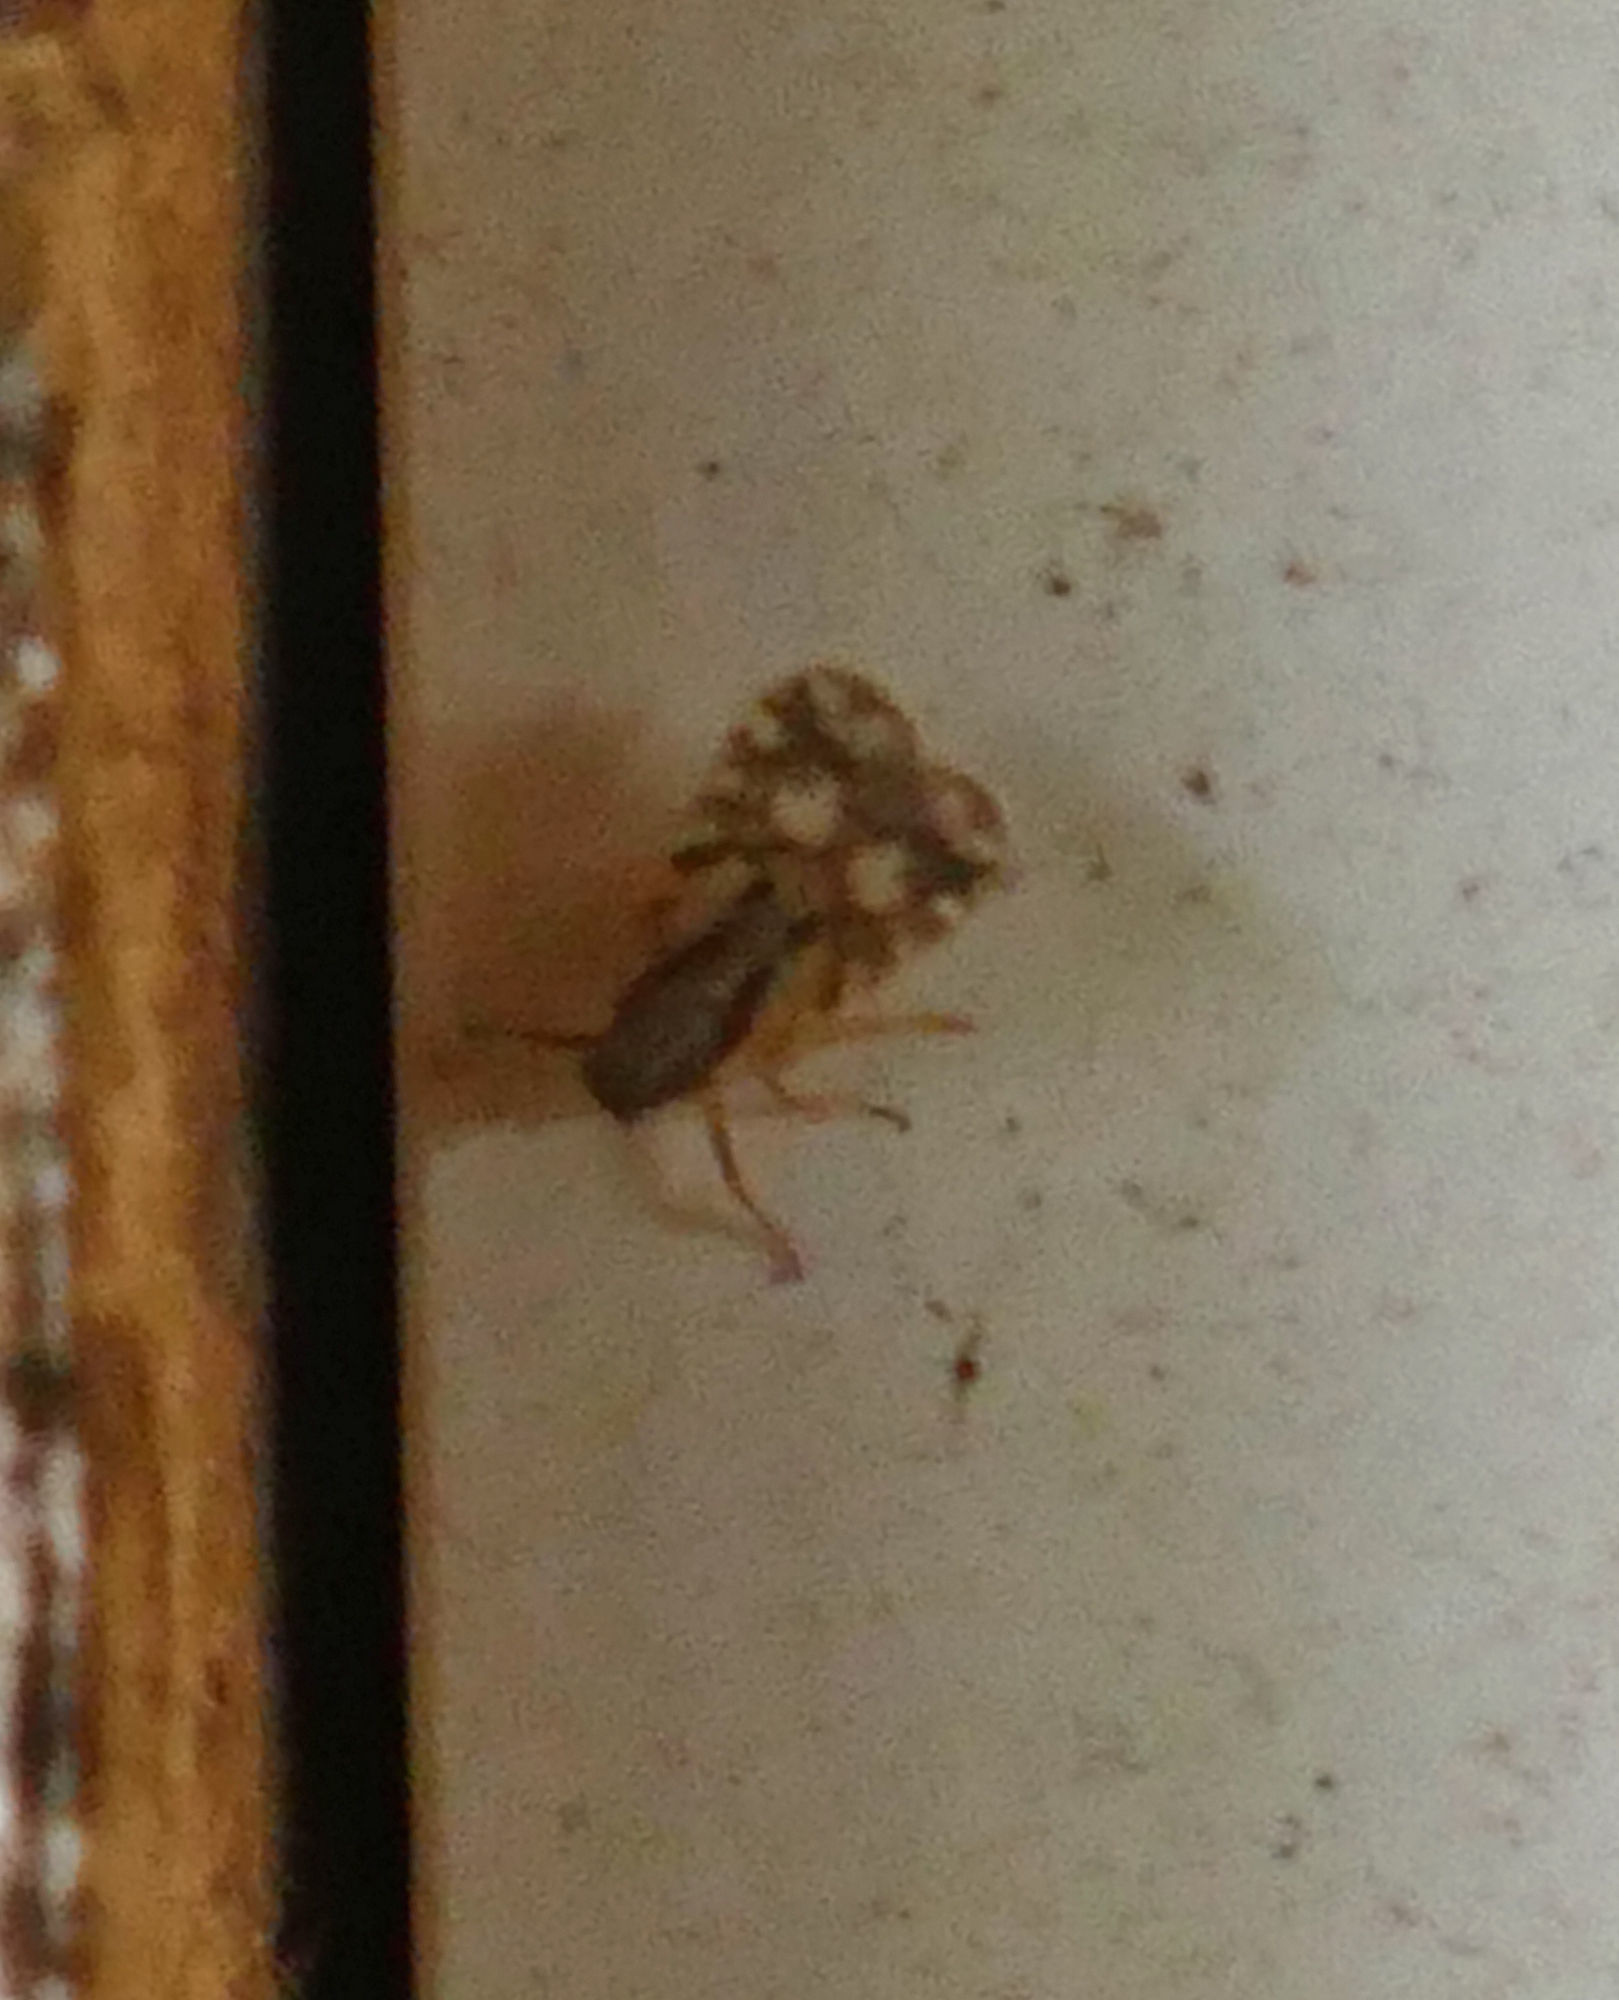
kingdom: Animalia
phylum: Arthropoda
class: Insecta
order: Hemiptera
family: Cixiidae
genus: Bothriocera
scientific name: Bothriocera maculata
